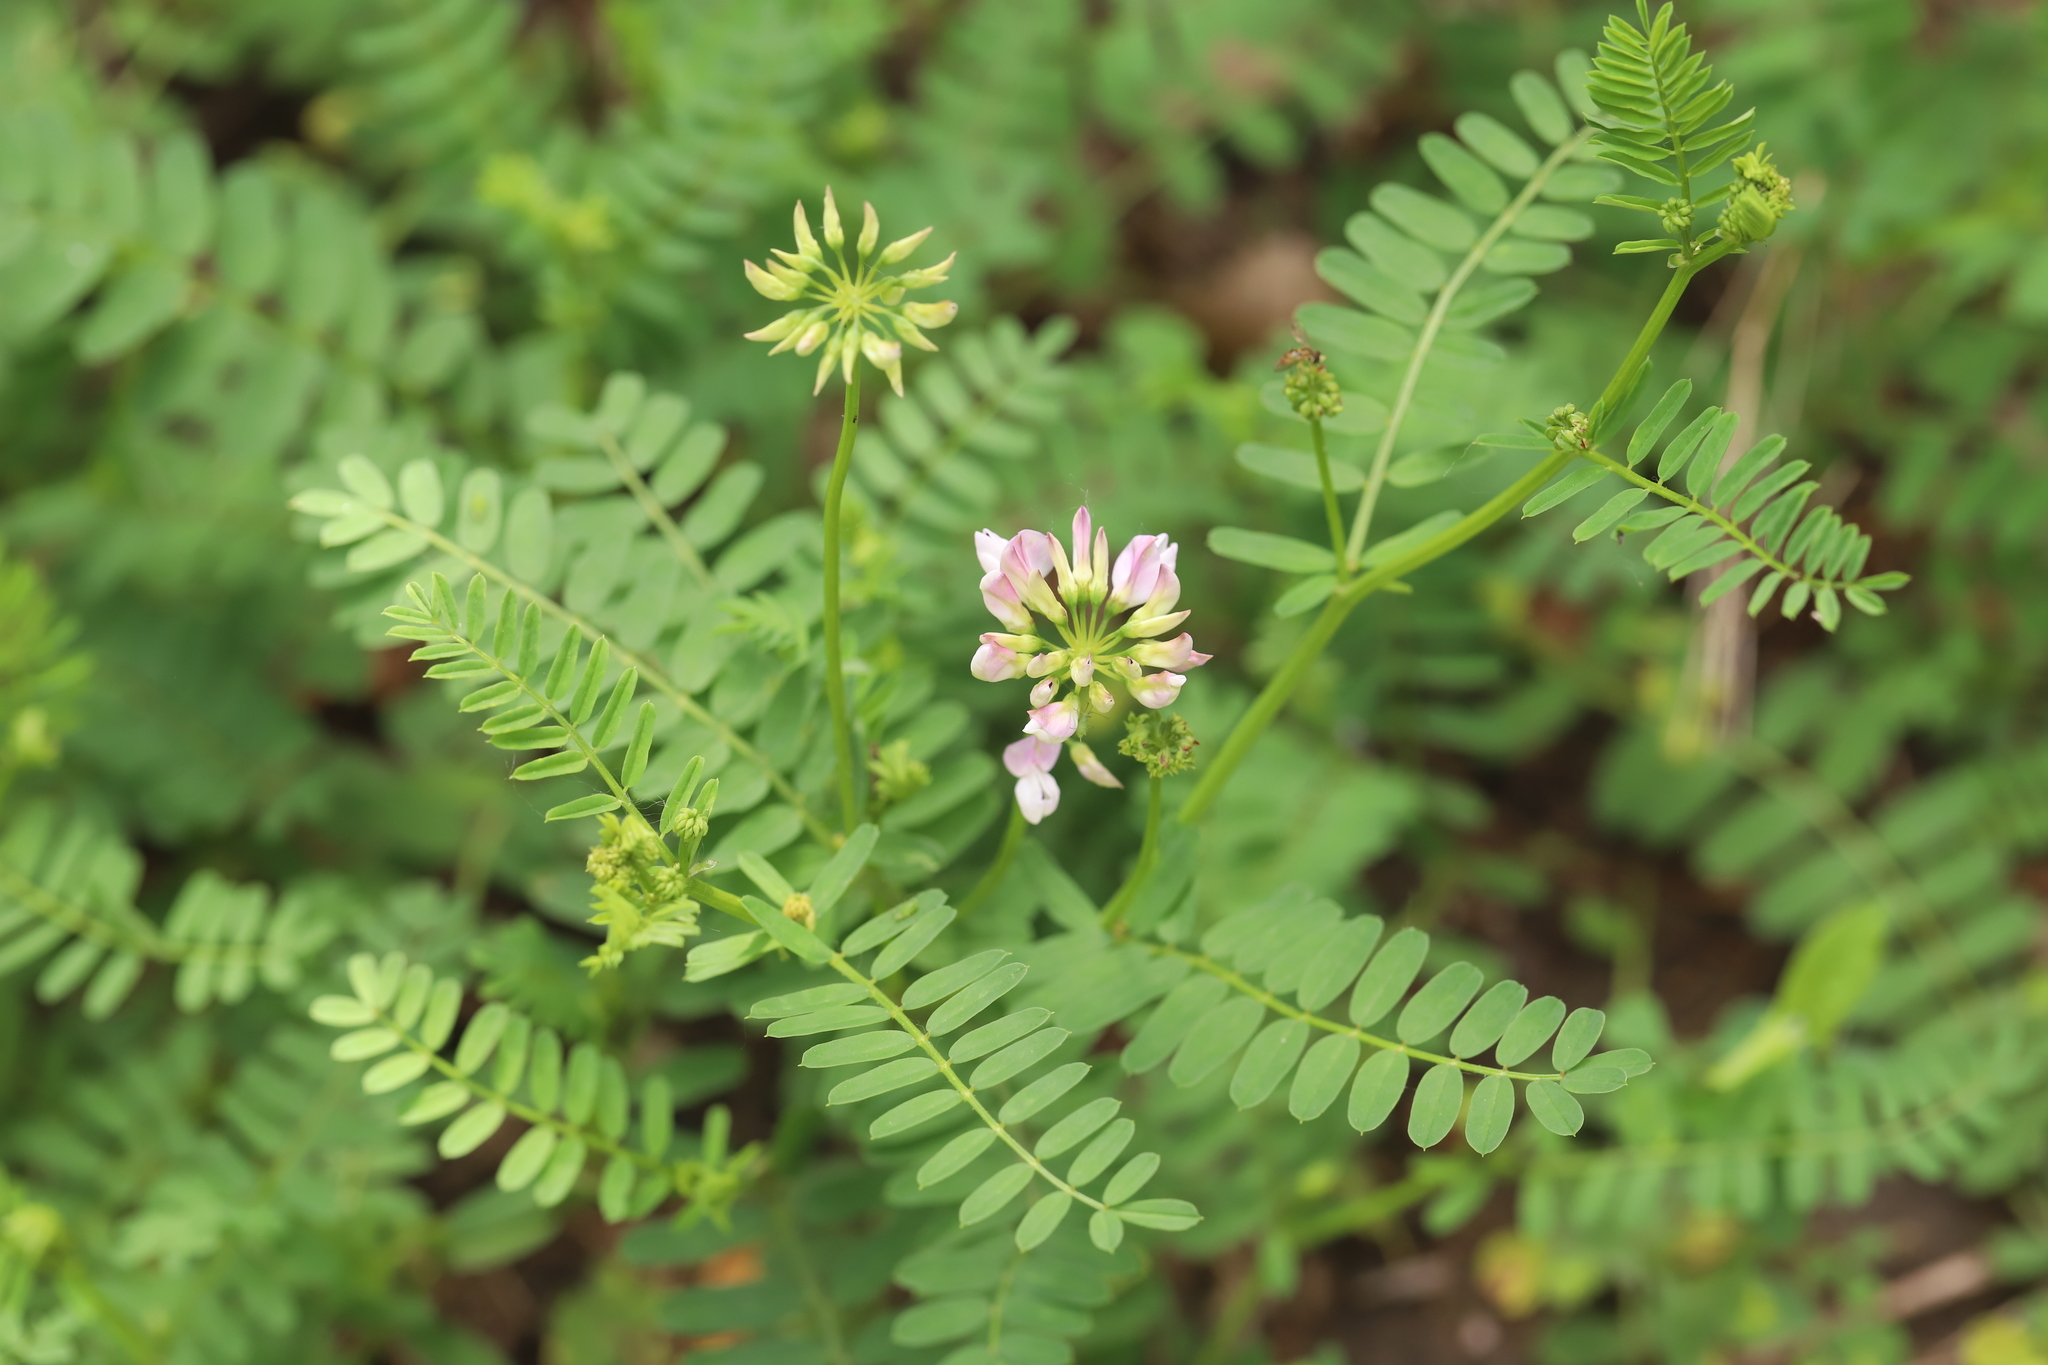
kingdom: Plantae
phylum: Tracheophyta
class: Magnoliopsida
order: Fabales
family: Fabaceae
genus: Coronilla
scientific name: Coronilla varia
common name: Crownvetch
